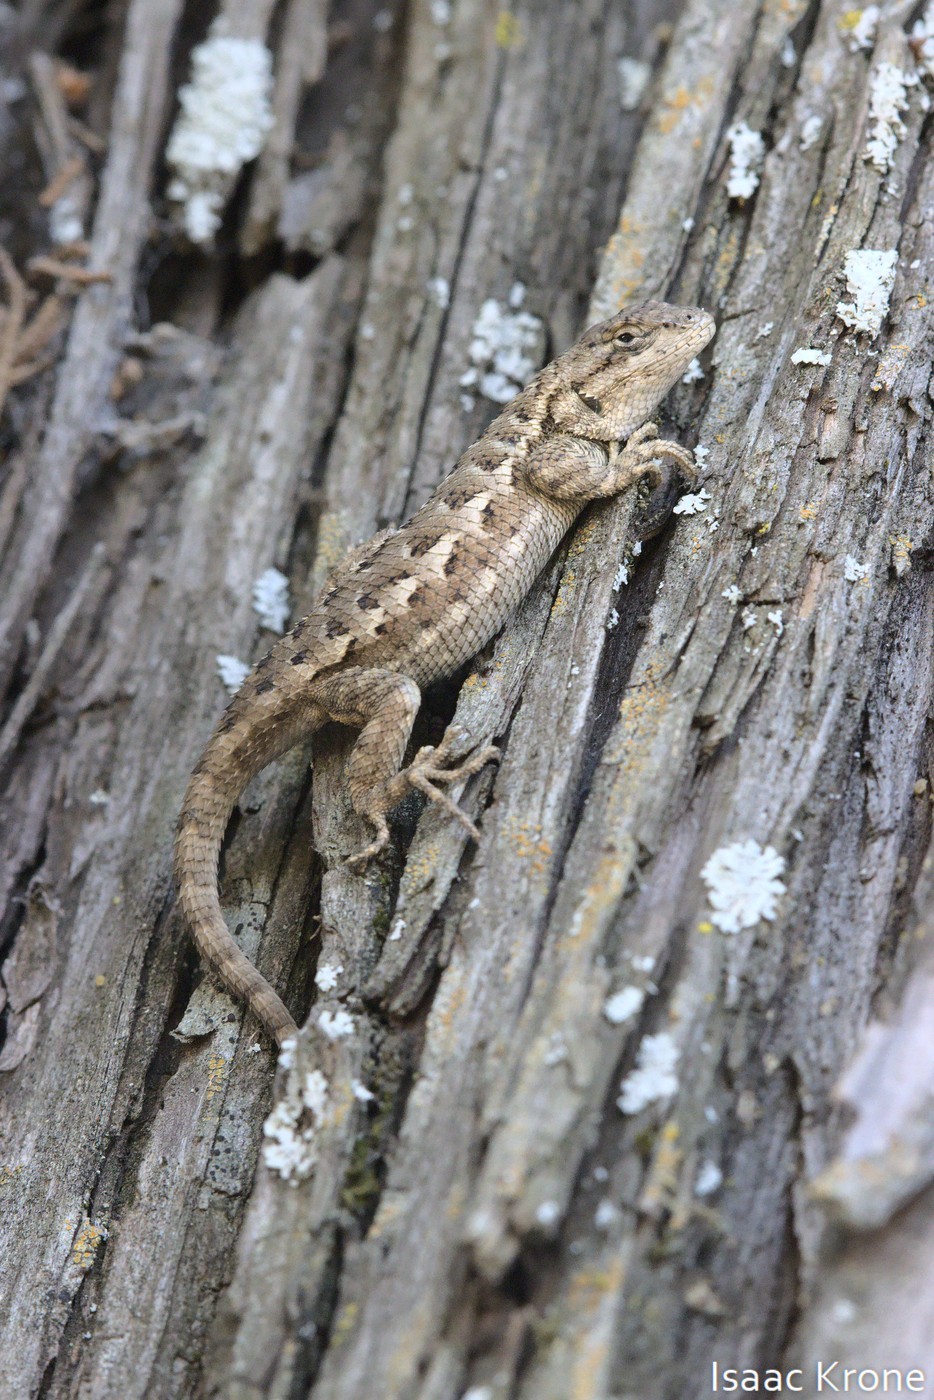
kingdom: Animalia
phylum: Chordata
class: Squamata
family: Phrynosomatidae
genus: Sceloporus
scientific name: Sceloporus occidentalis
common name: Western fence lizard
